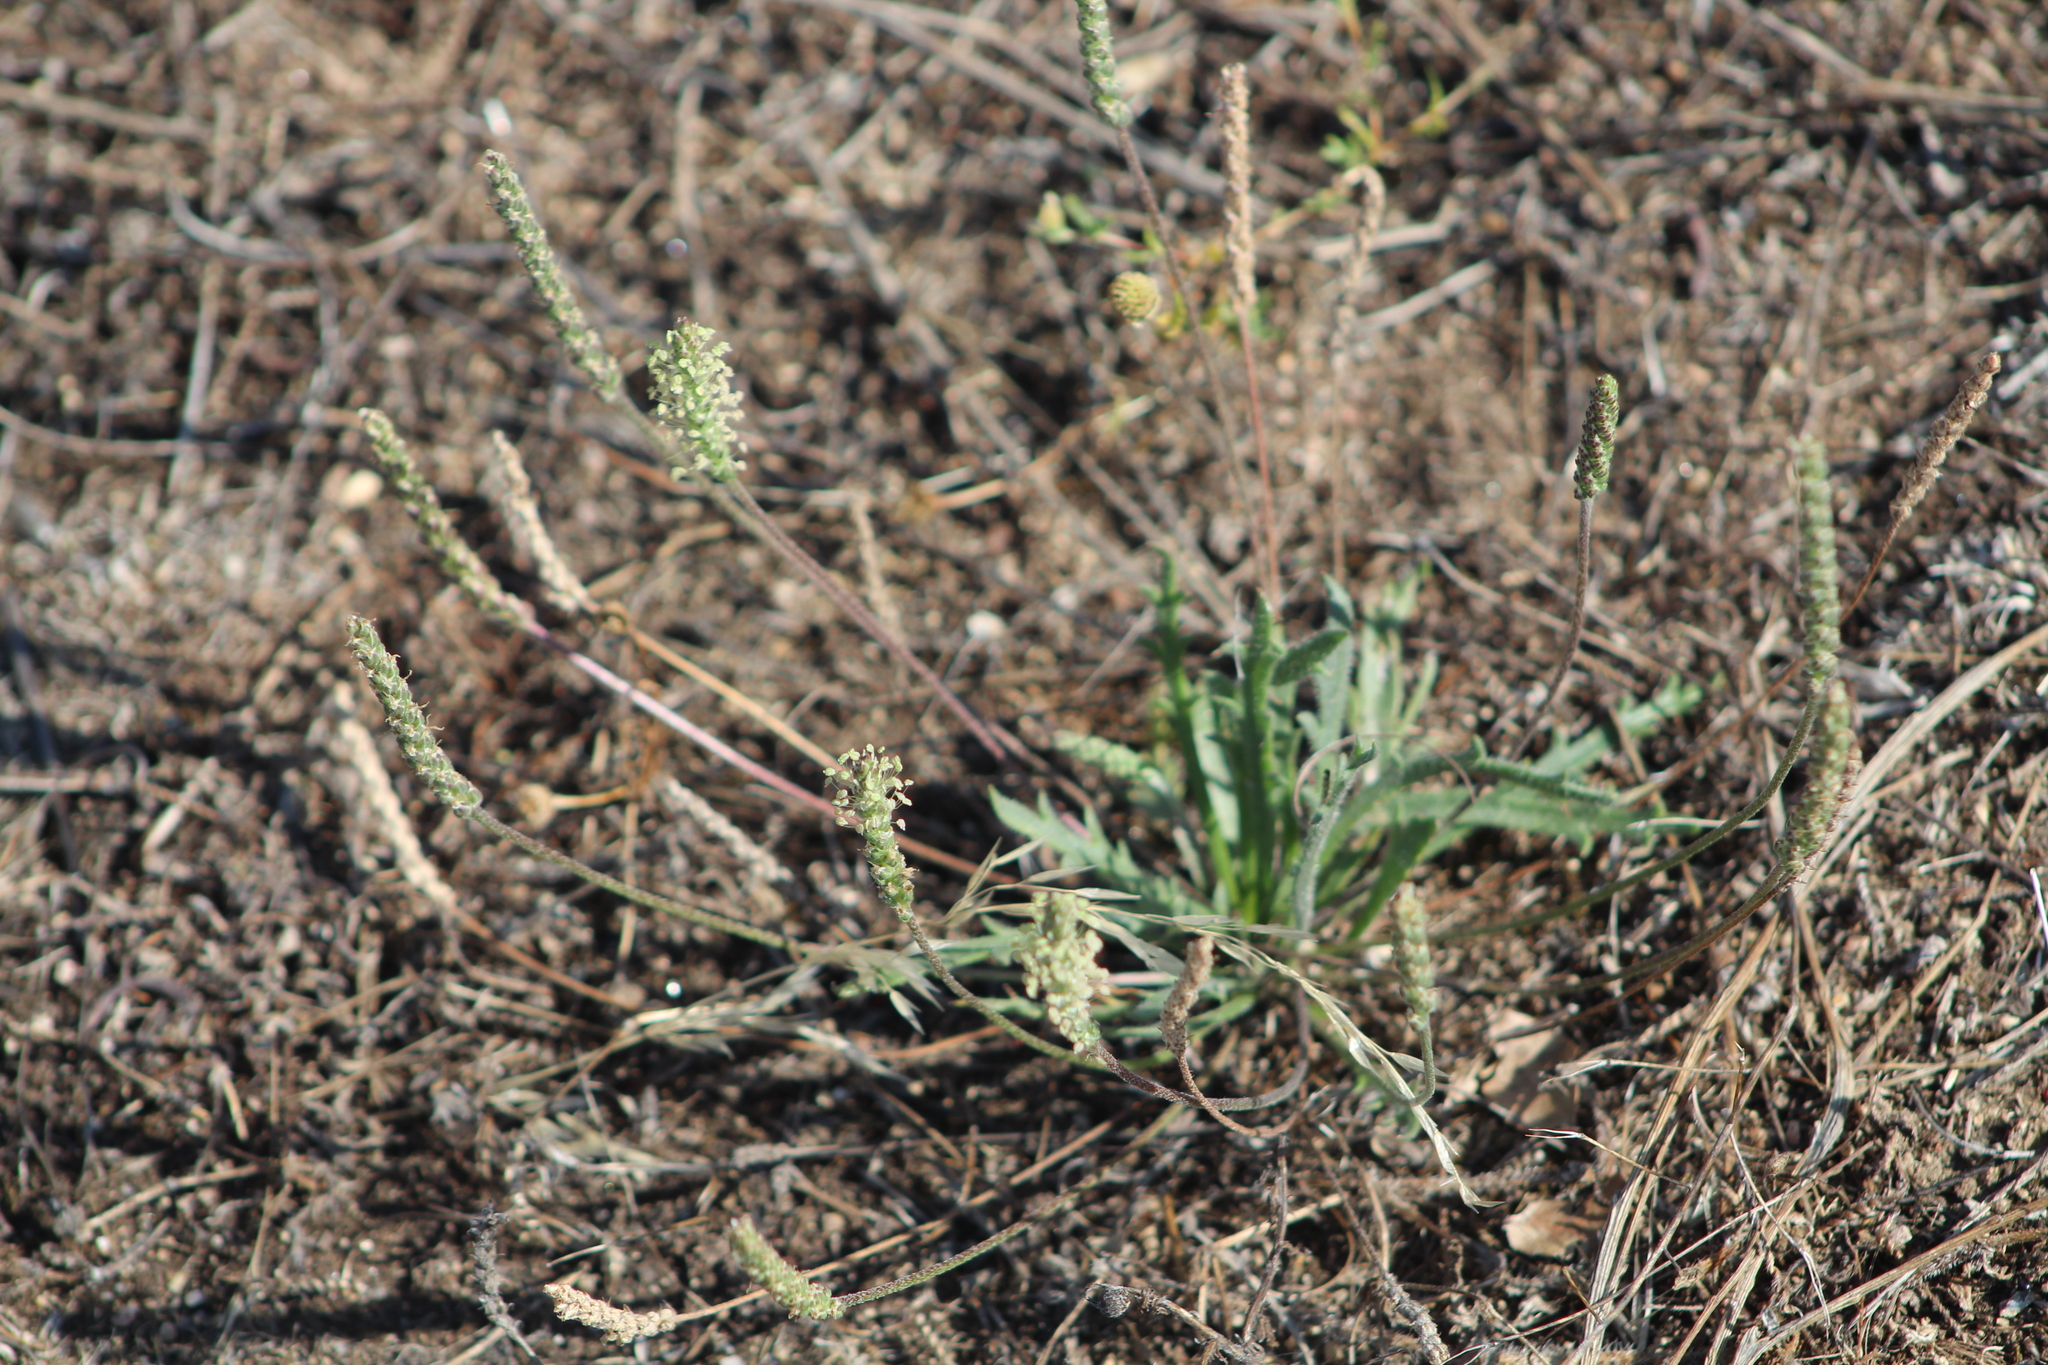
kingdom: Plantae
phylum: Tracheophyta
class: Magnoliopsida
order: Lamiales
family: Plantaginaceae
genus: Plantago
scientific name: Plantago coronopus
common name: Buck's-horn plantain
